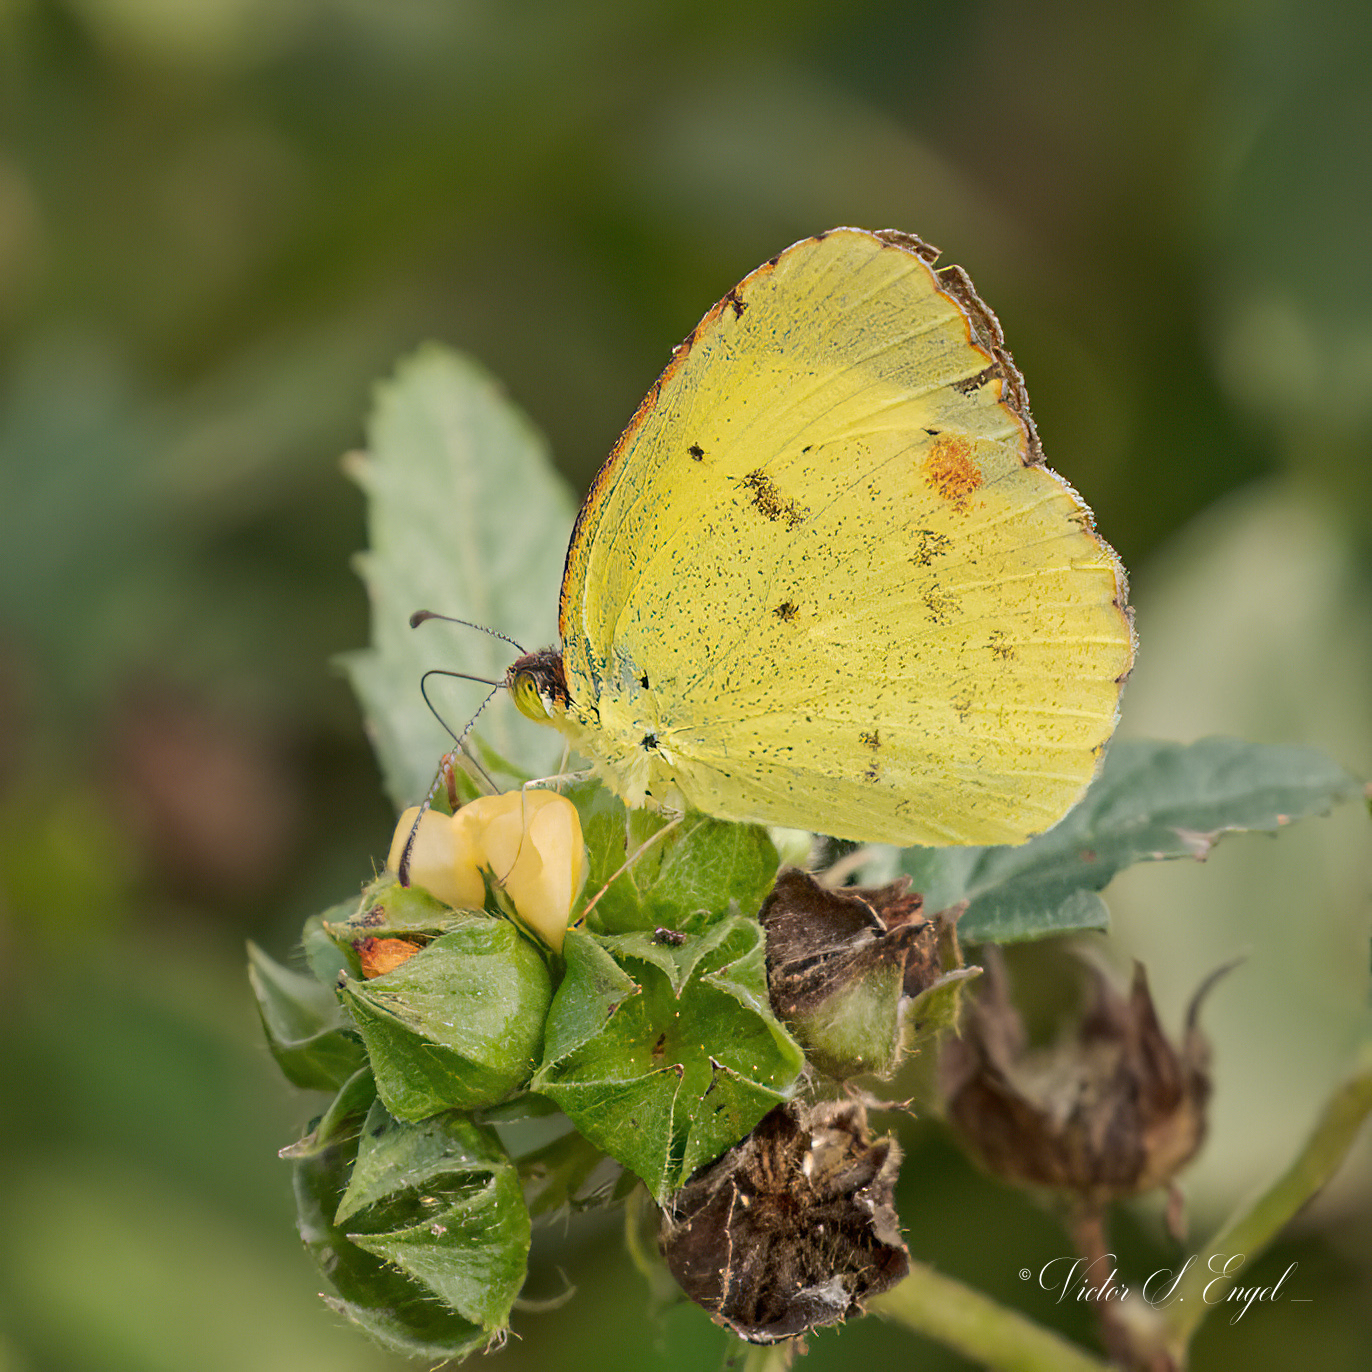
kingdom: Animalia
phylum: Arthropoda
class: Insecta
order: Lepidoptera
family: Pieridae
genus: Pyrisitia
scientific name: Pyrisitia lisa
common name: Little yellow
